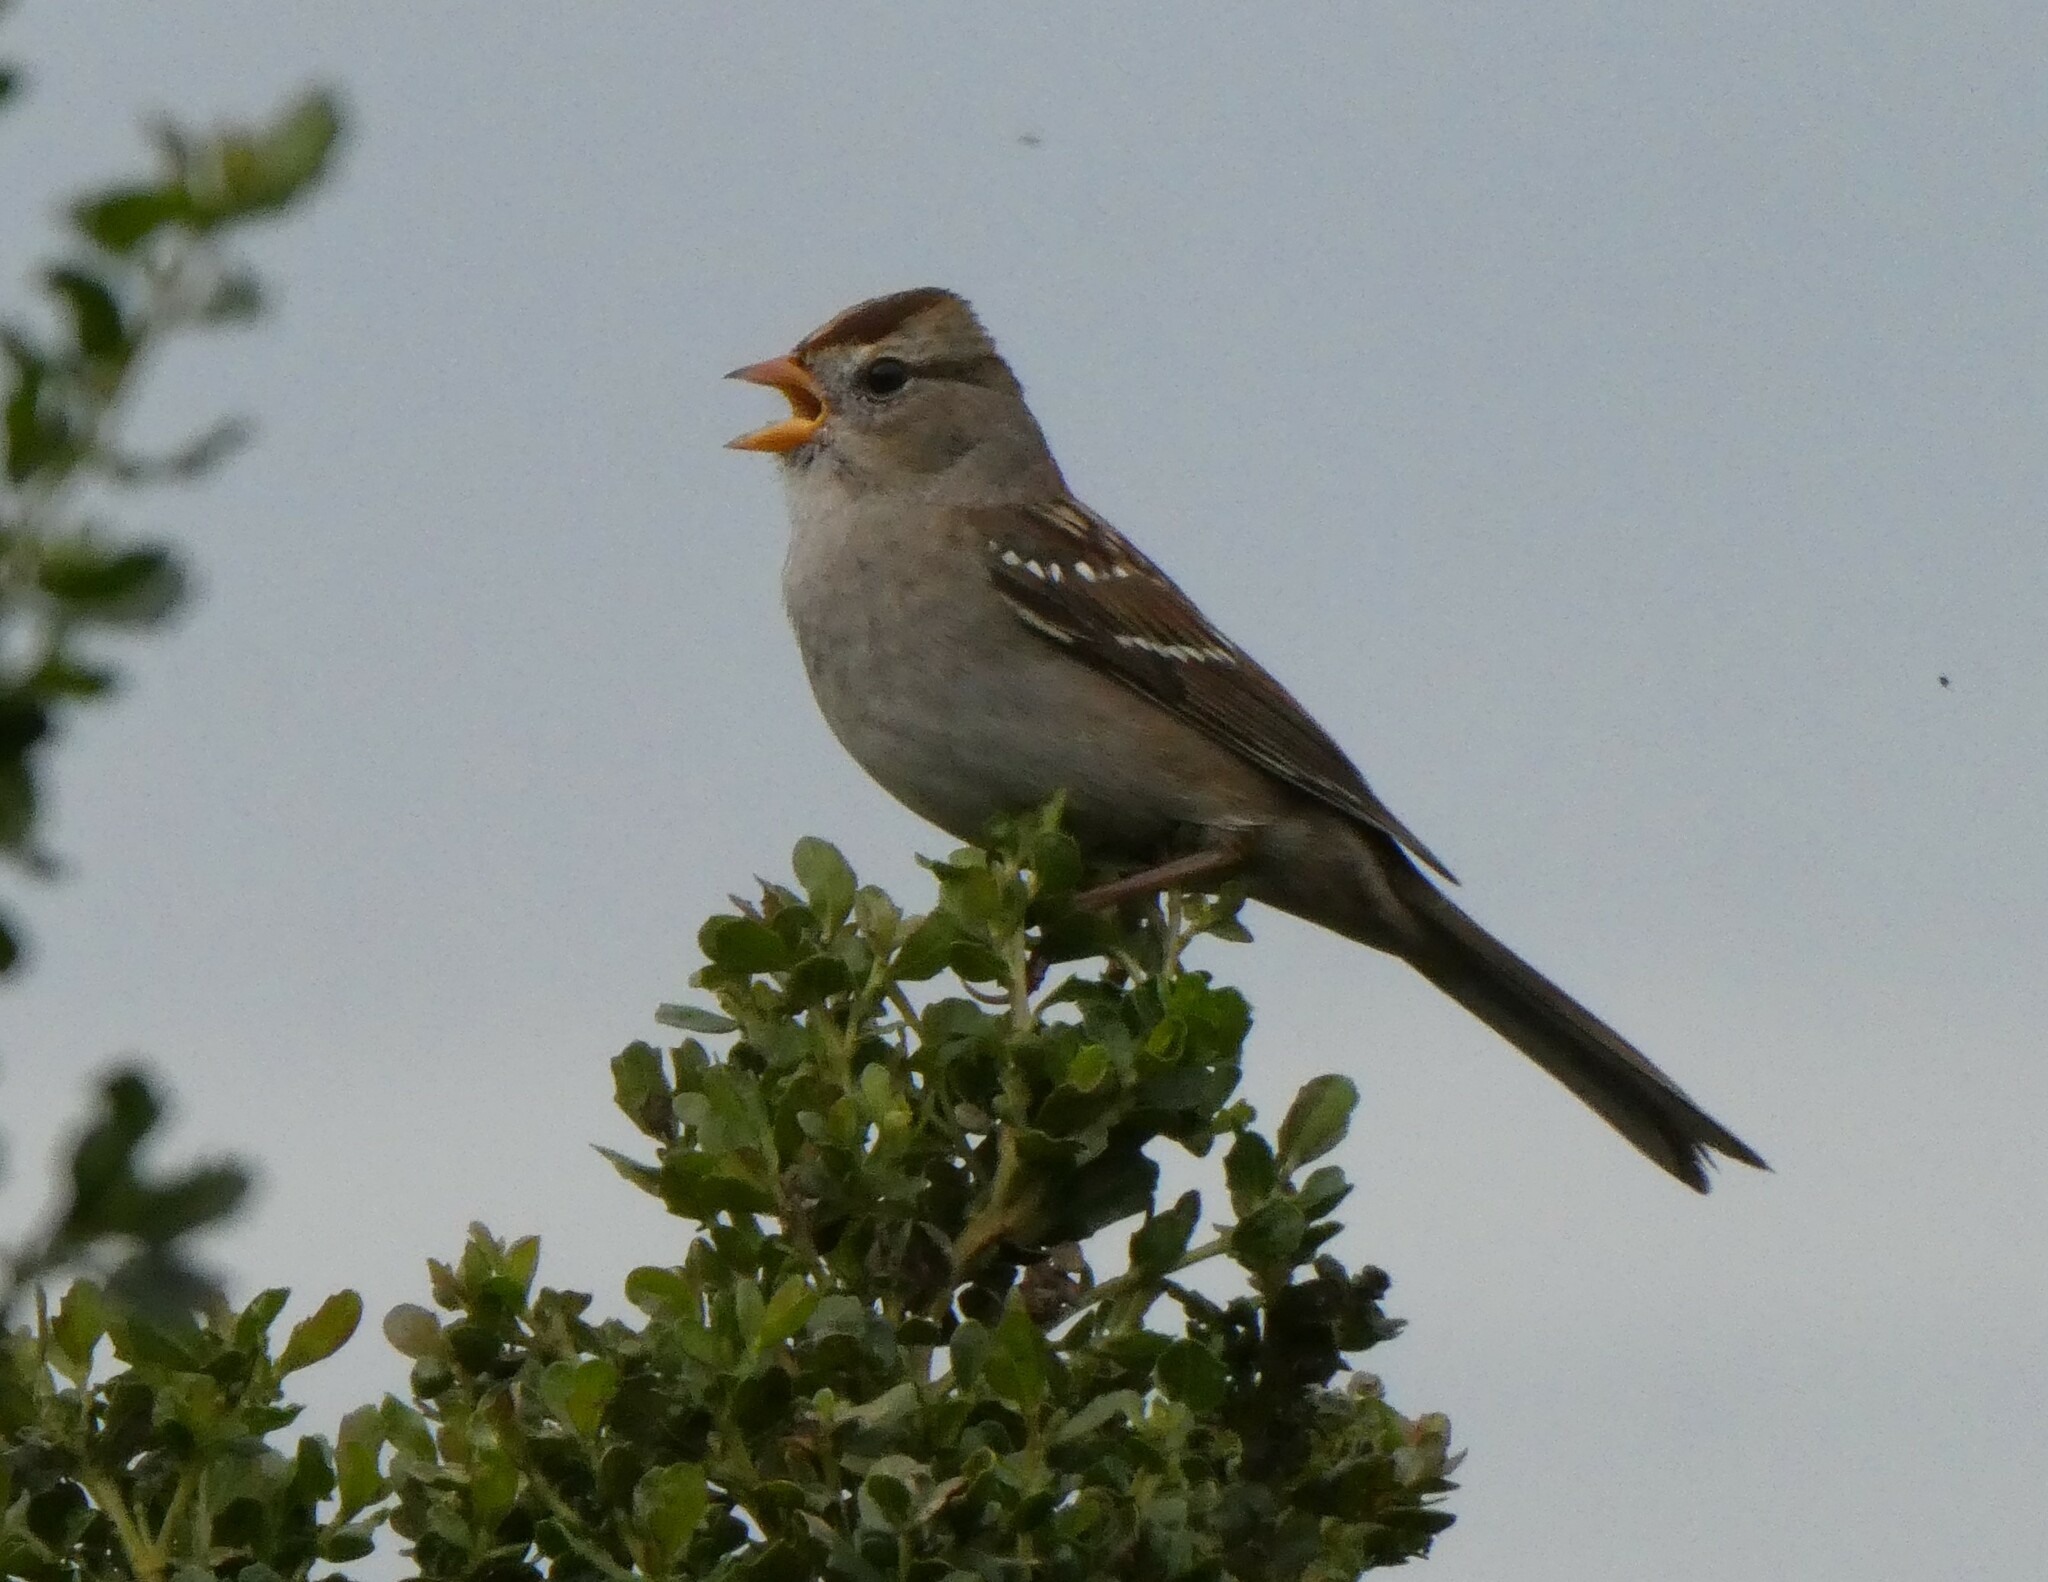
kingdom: Animalia
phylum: Chordata
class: Aves
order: Passeriformes
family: Passerellidae
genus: Zonotrichia
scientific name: Zonotrichia leucophrys
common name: White-crowned sparrow
